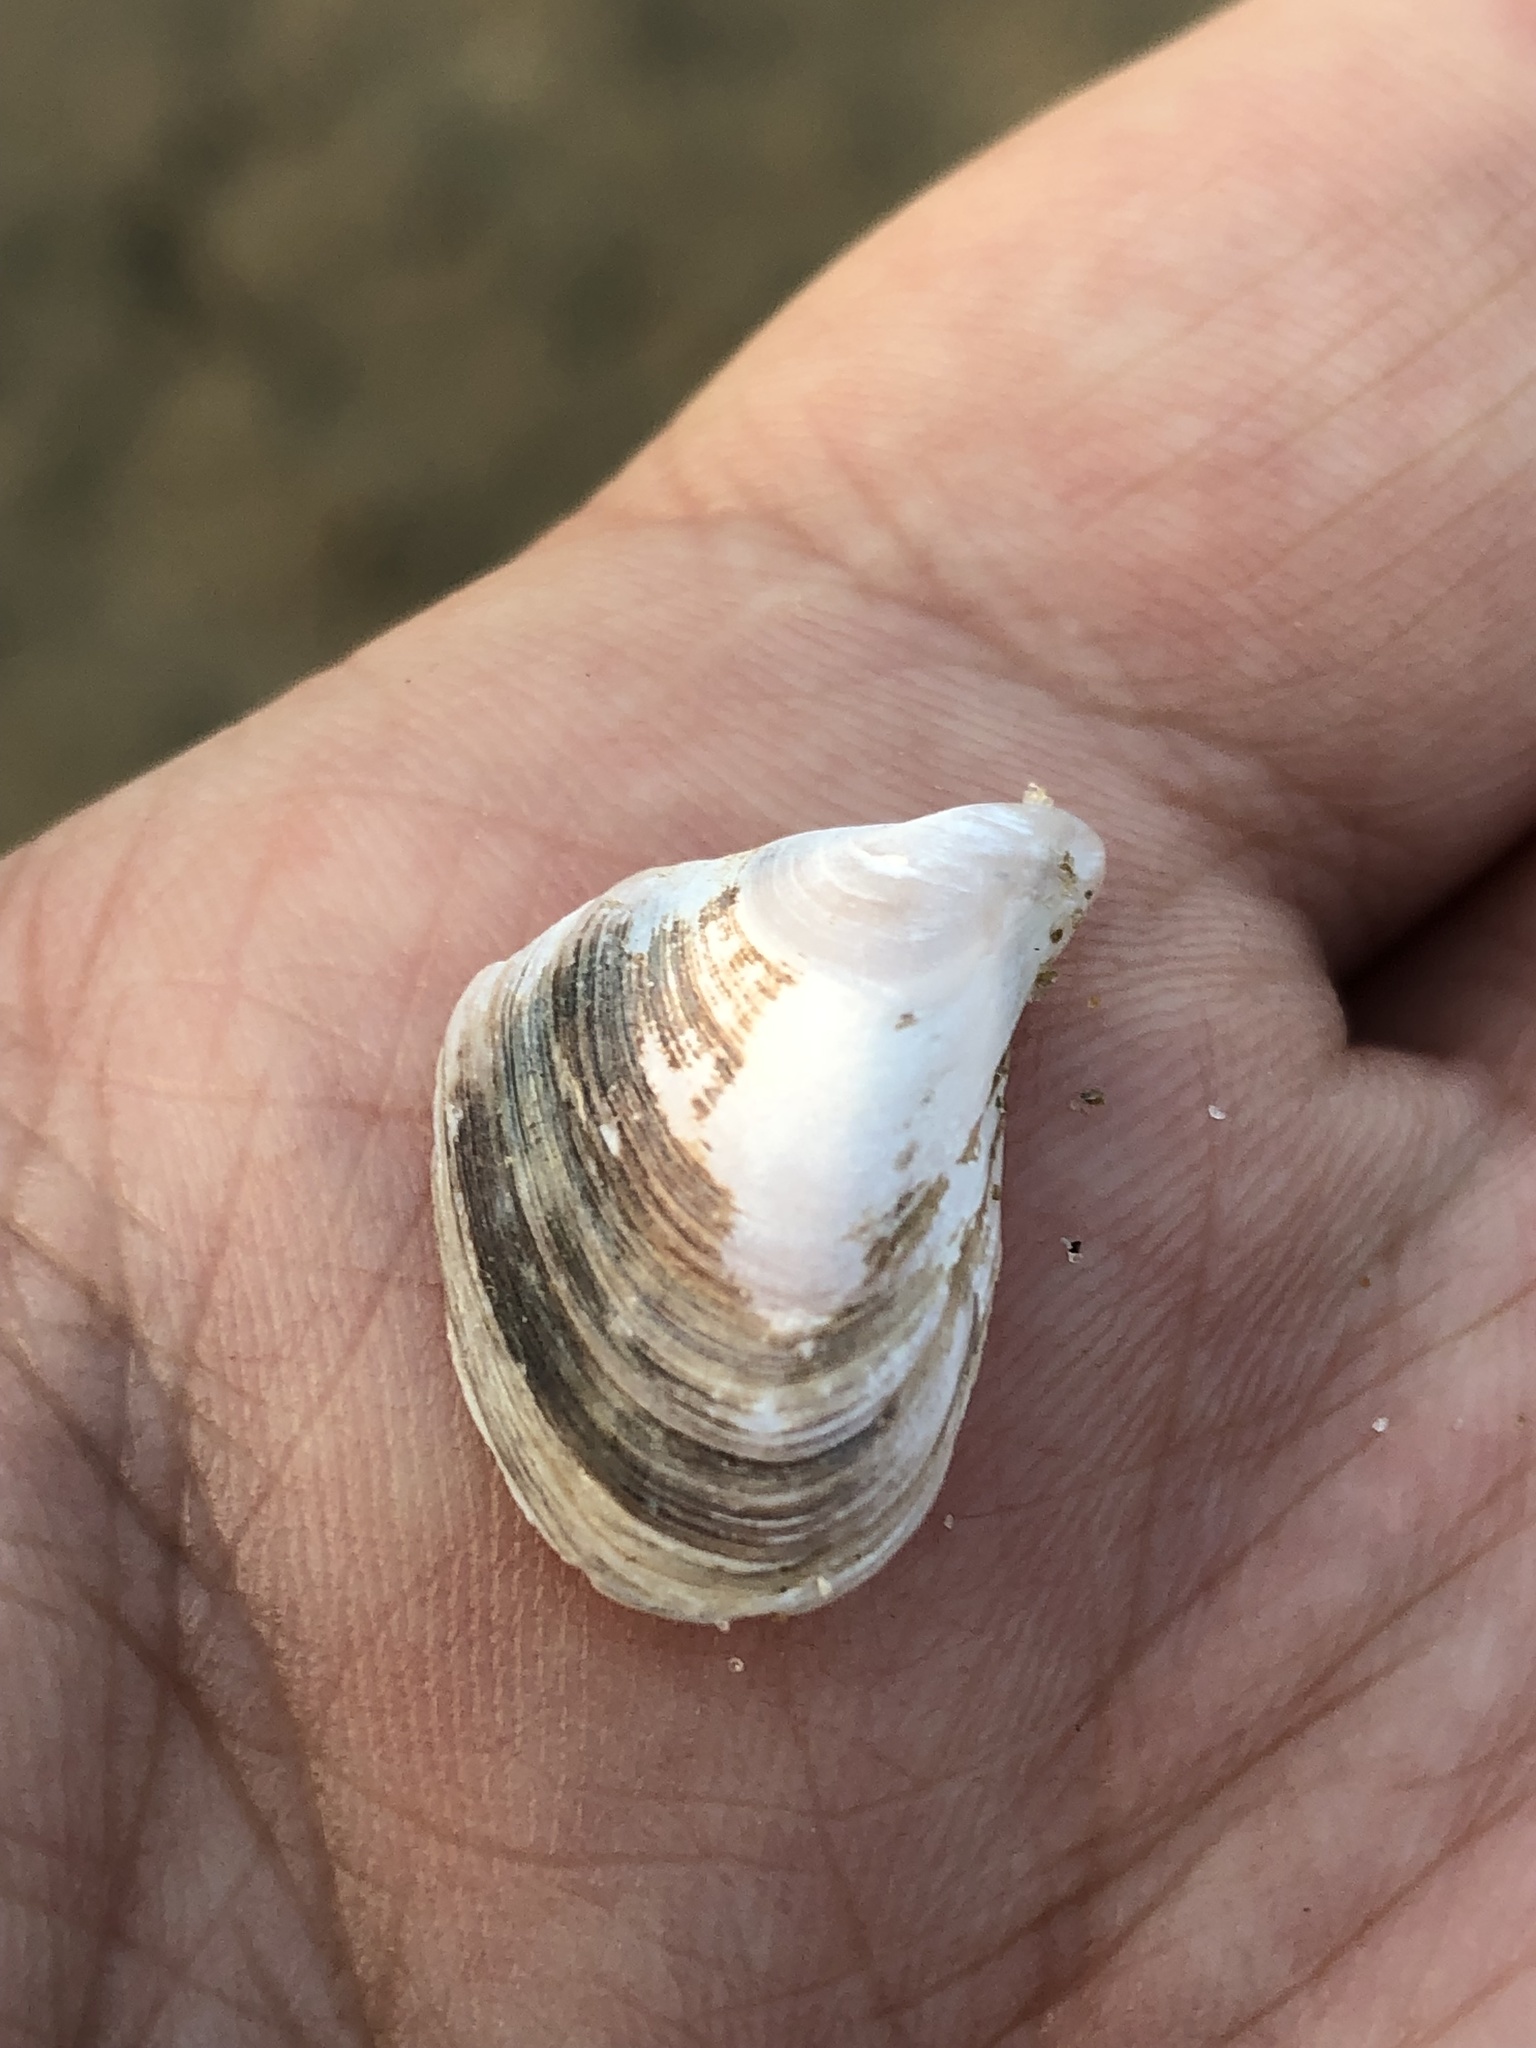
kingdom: Animalia
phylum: Mollusca
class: Bivalvia
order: Myida
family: Dreissenidae
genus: Dreissena
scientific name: Dreissena bugensis
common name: Quagga mussel
